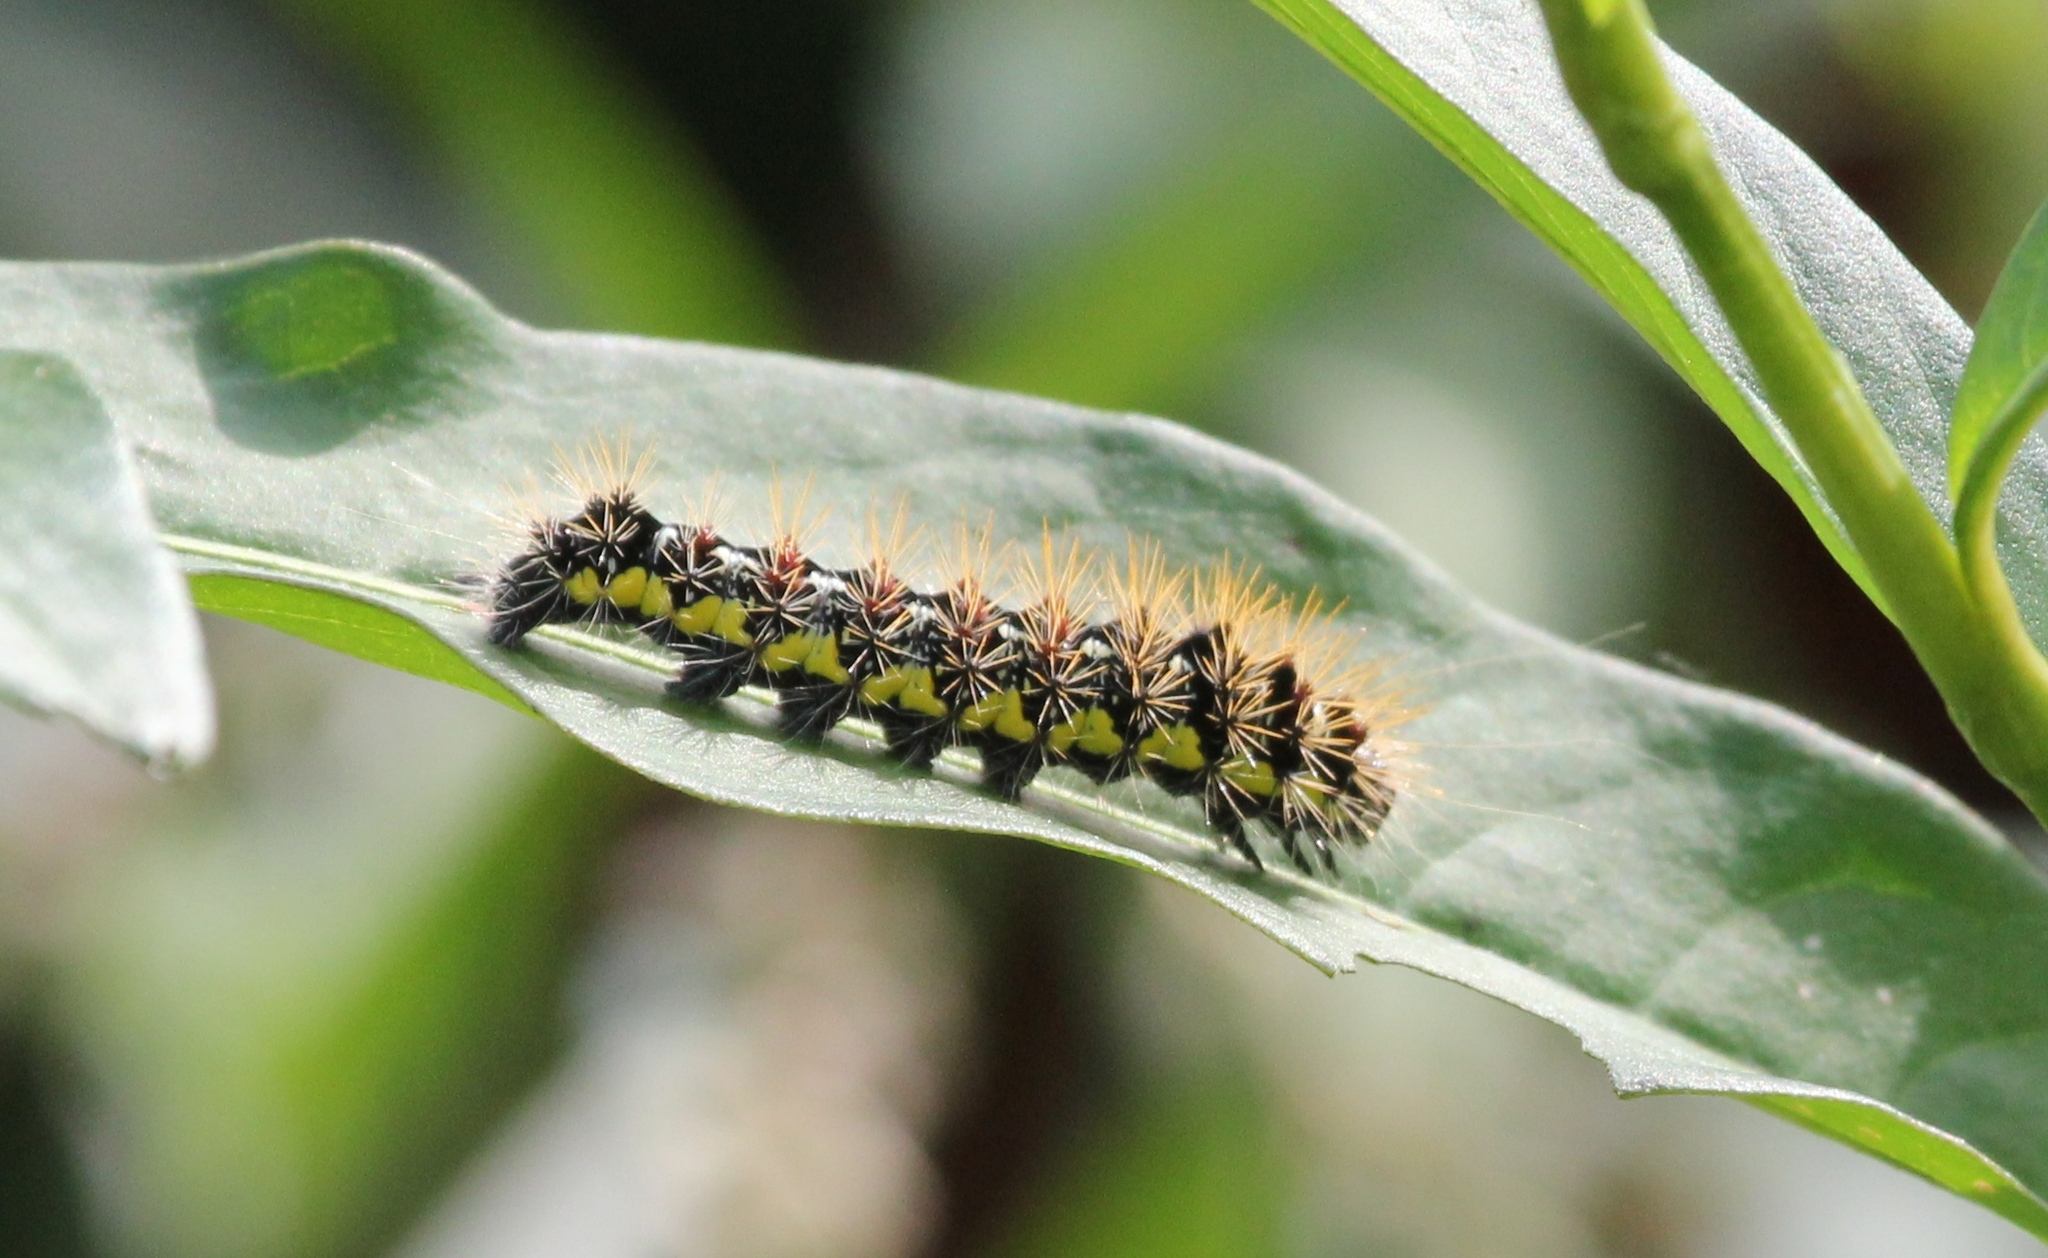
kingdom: Animalia
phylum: Arthropoda
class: Insecta
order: Lepidoptera
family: Noctuidae
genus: Acronicta
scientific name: Acronicta oblinita
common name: Smeared dagger
